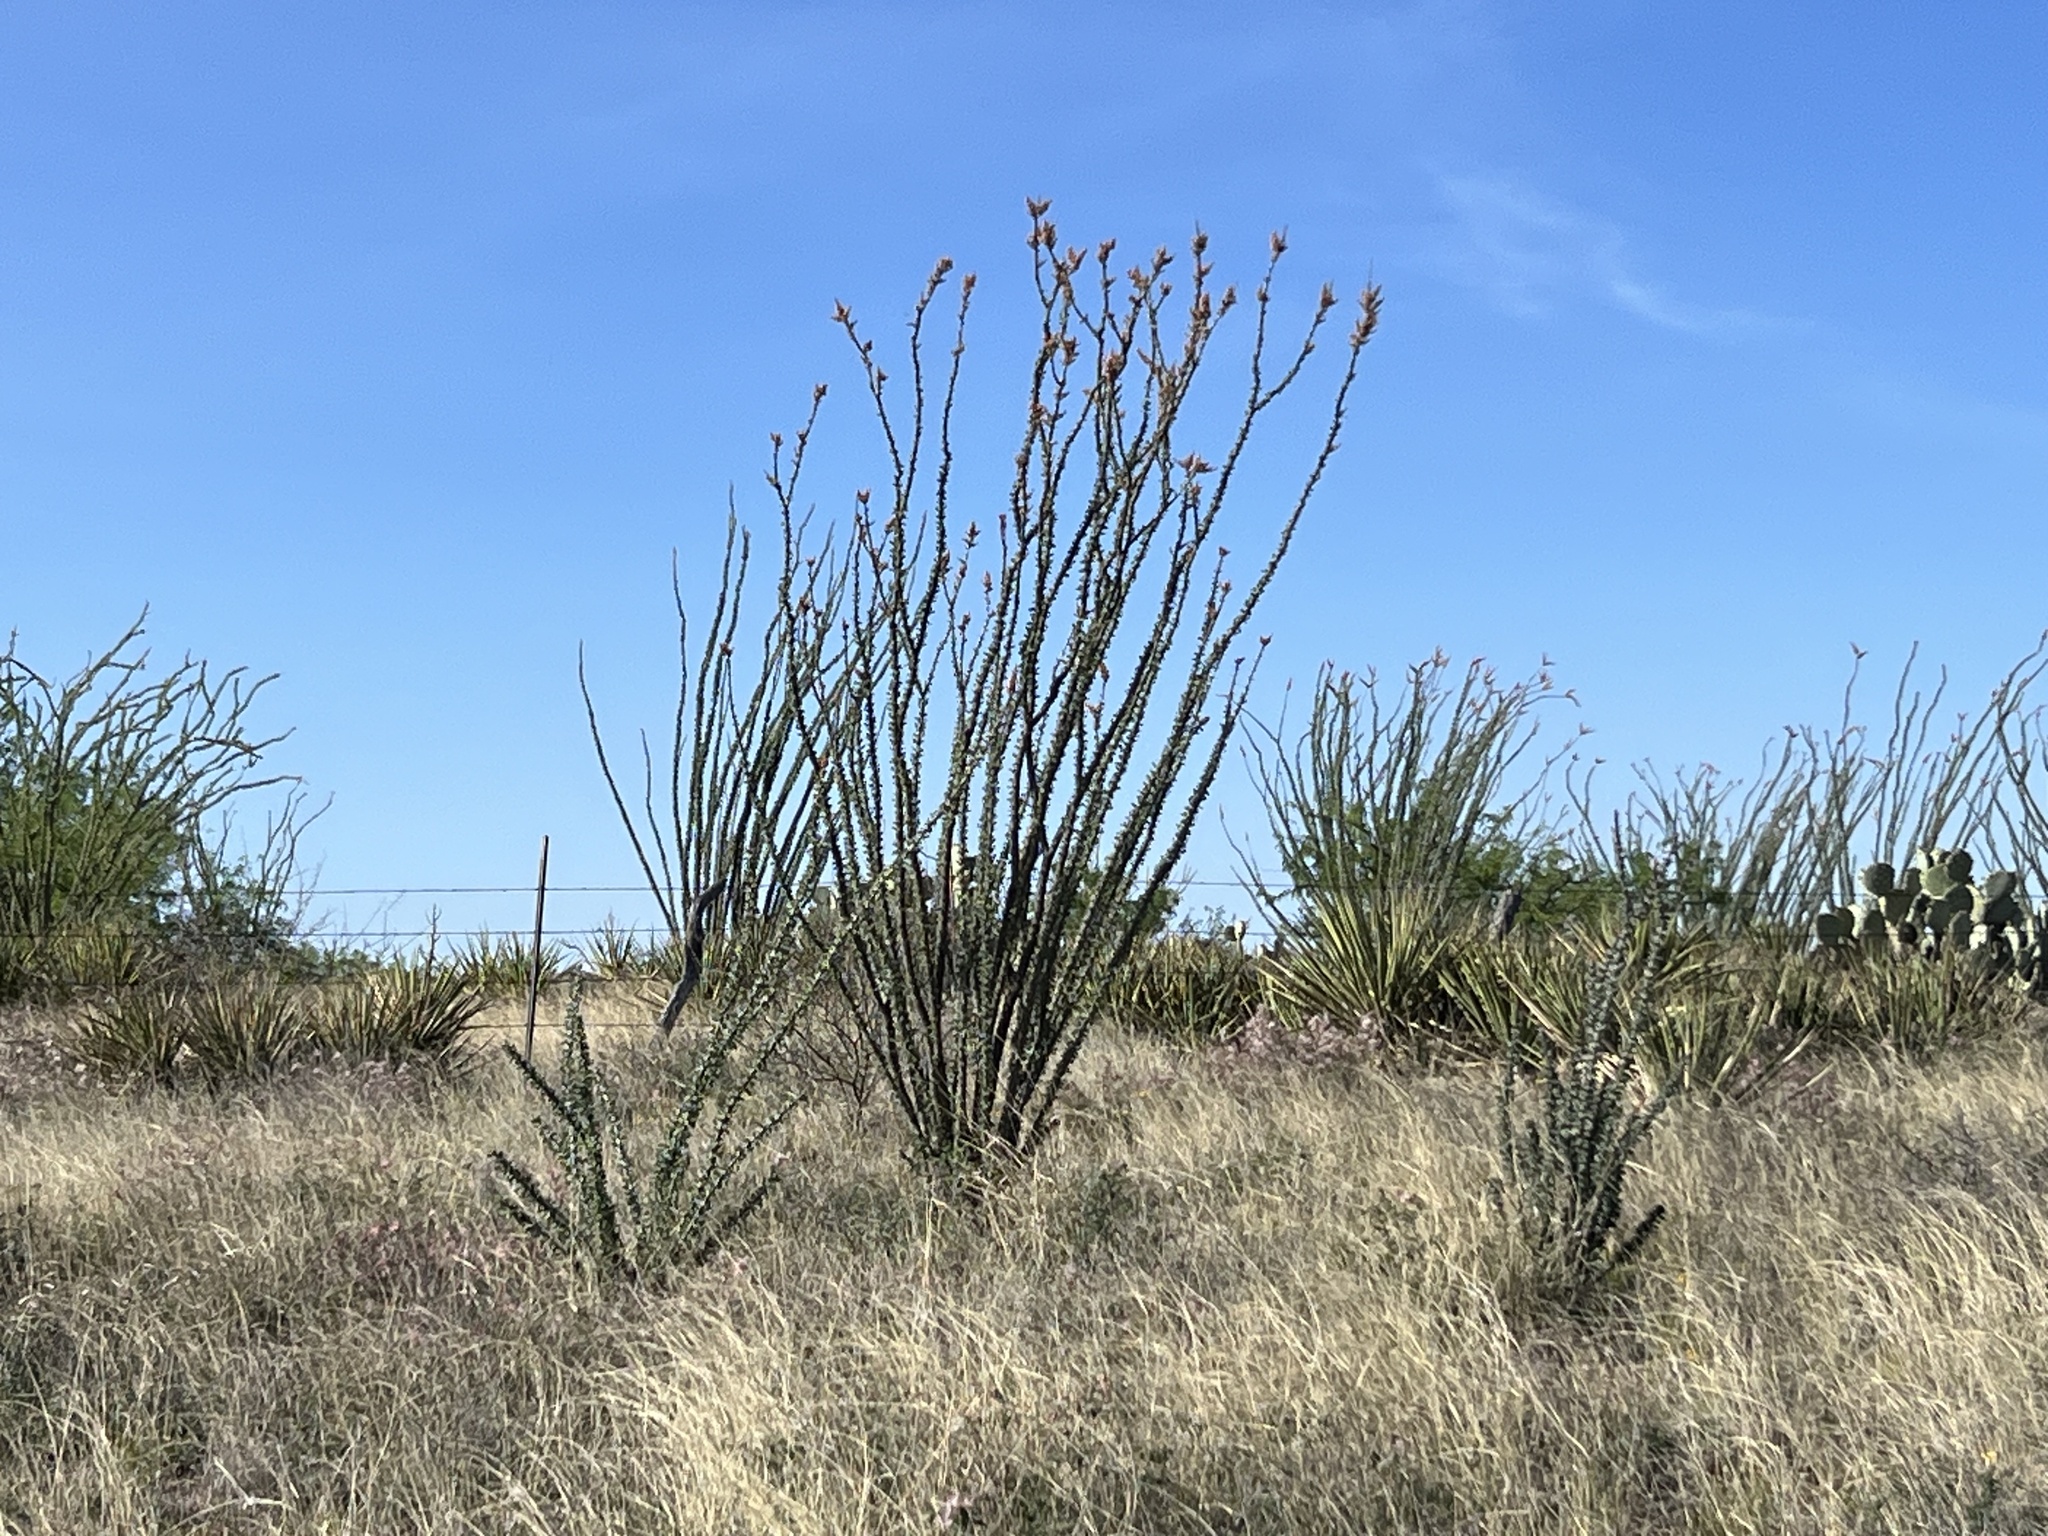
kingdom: Plantae
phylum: Tracheophyta
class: Magnoliopsida
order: Ericales
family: Fouquieriaceae
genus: Fouquieria
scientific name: Fouquieria splendens
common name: Vine-cactus
